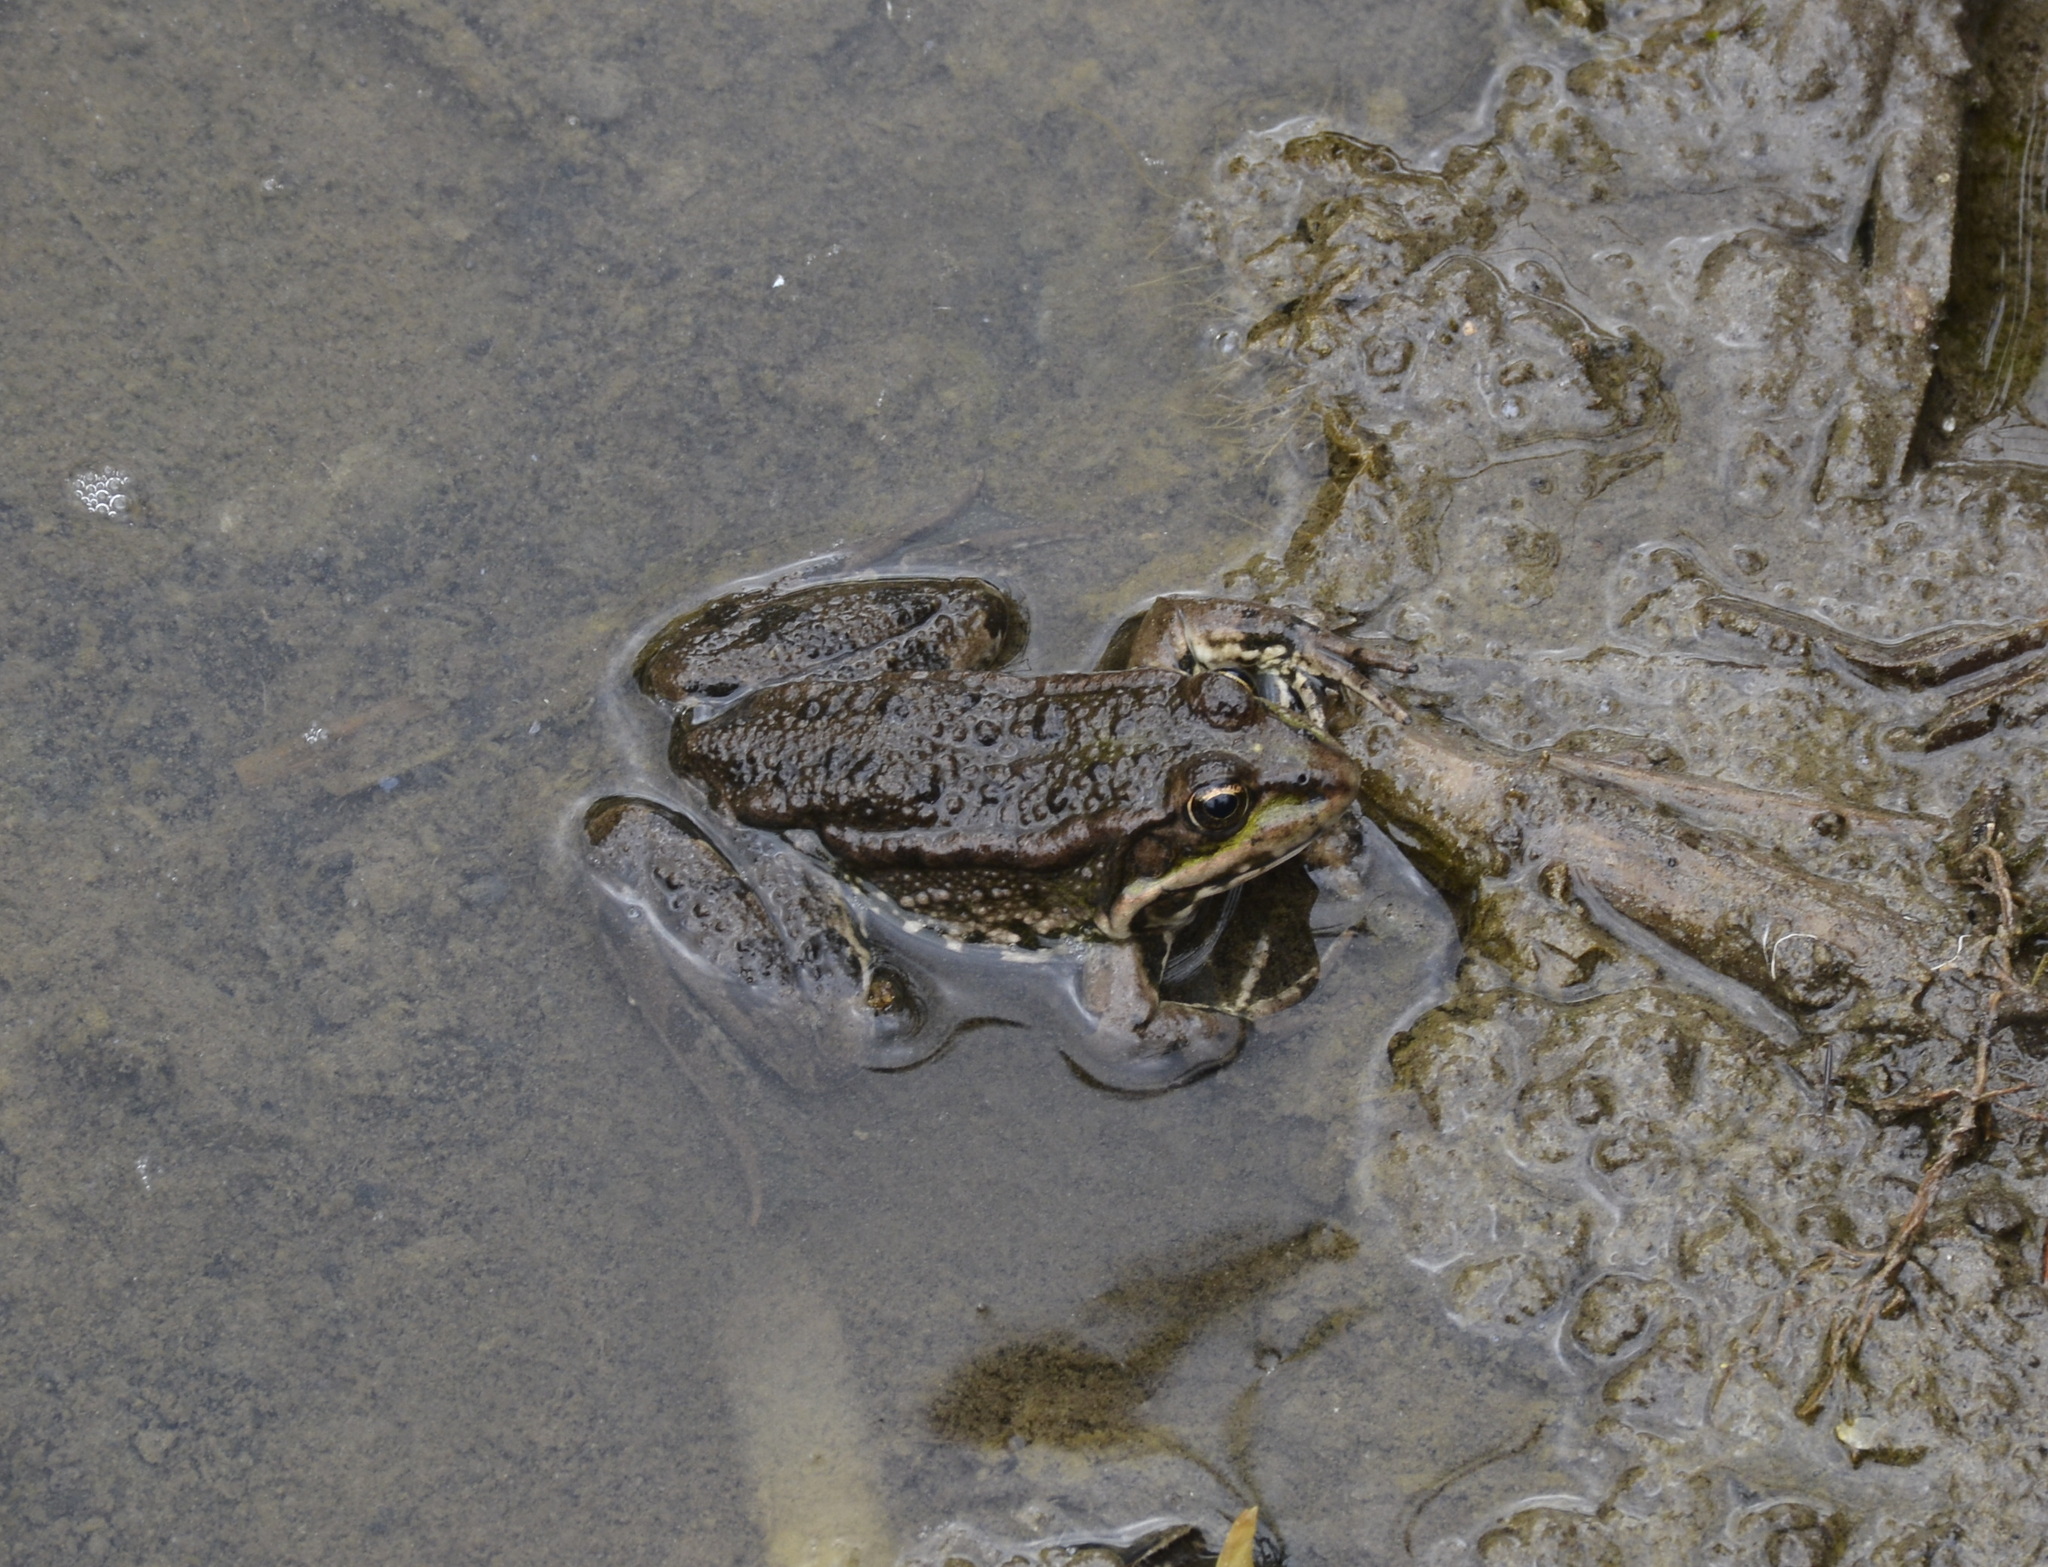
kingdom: Animalia
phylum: Chordata
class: Amphibia
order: Anura
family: Ranidae
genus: Pelophylax
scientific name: Pelophylax ridibundus
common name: Marsh frog
